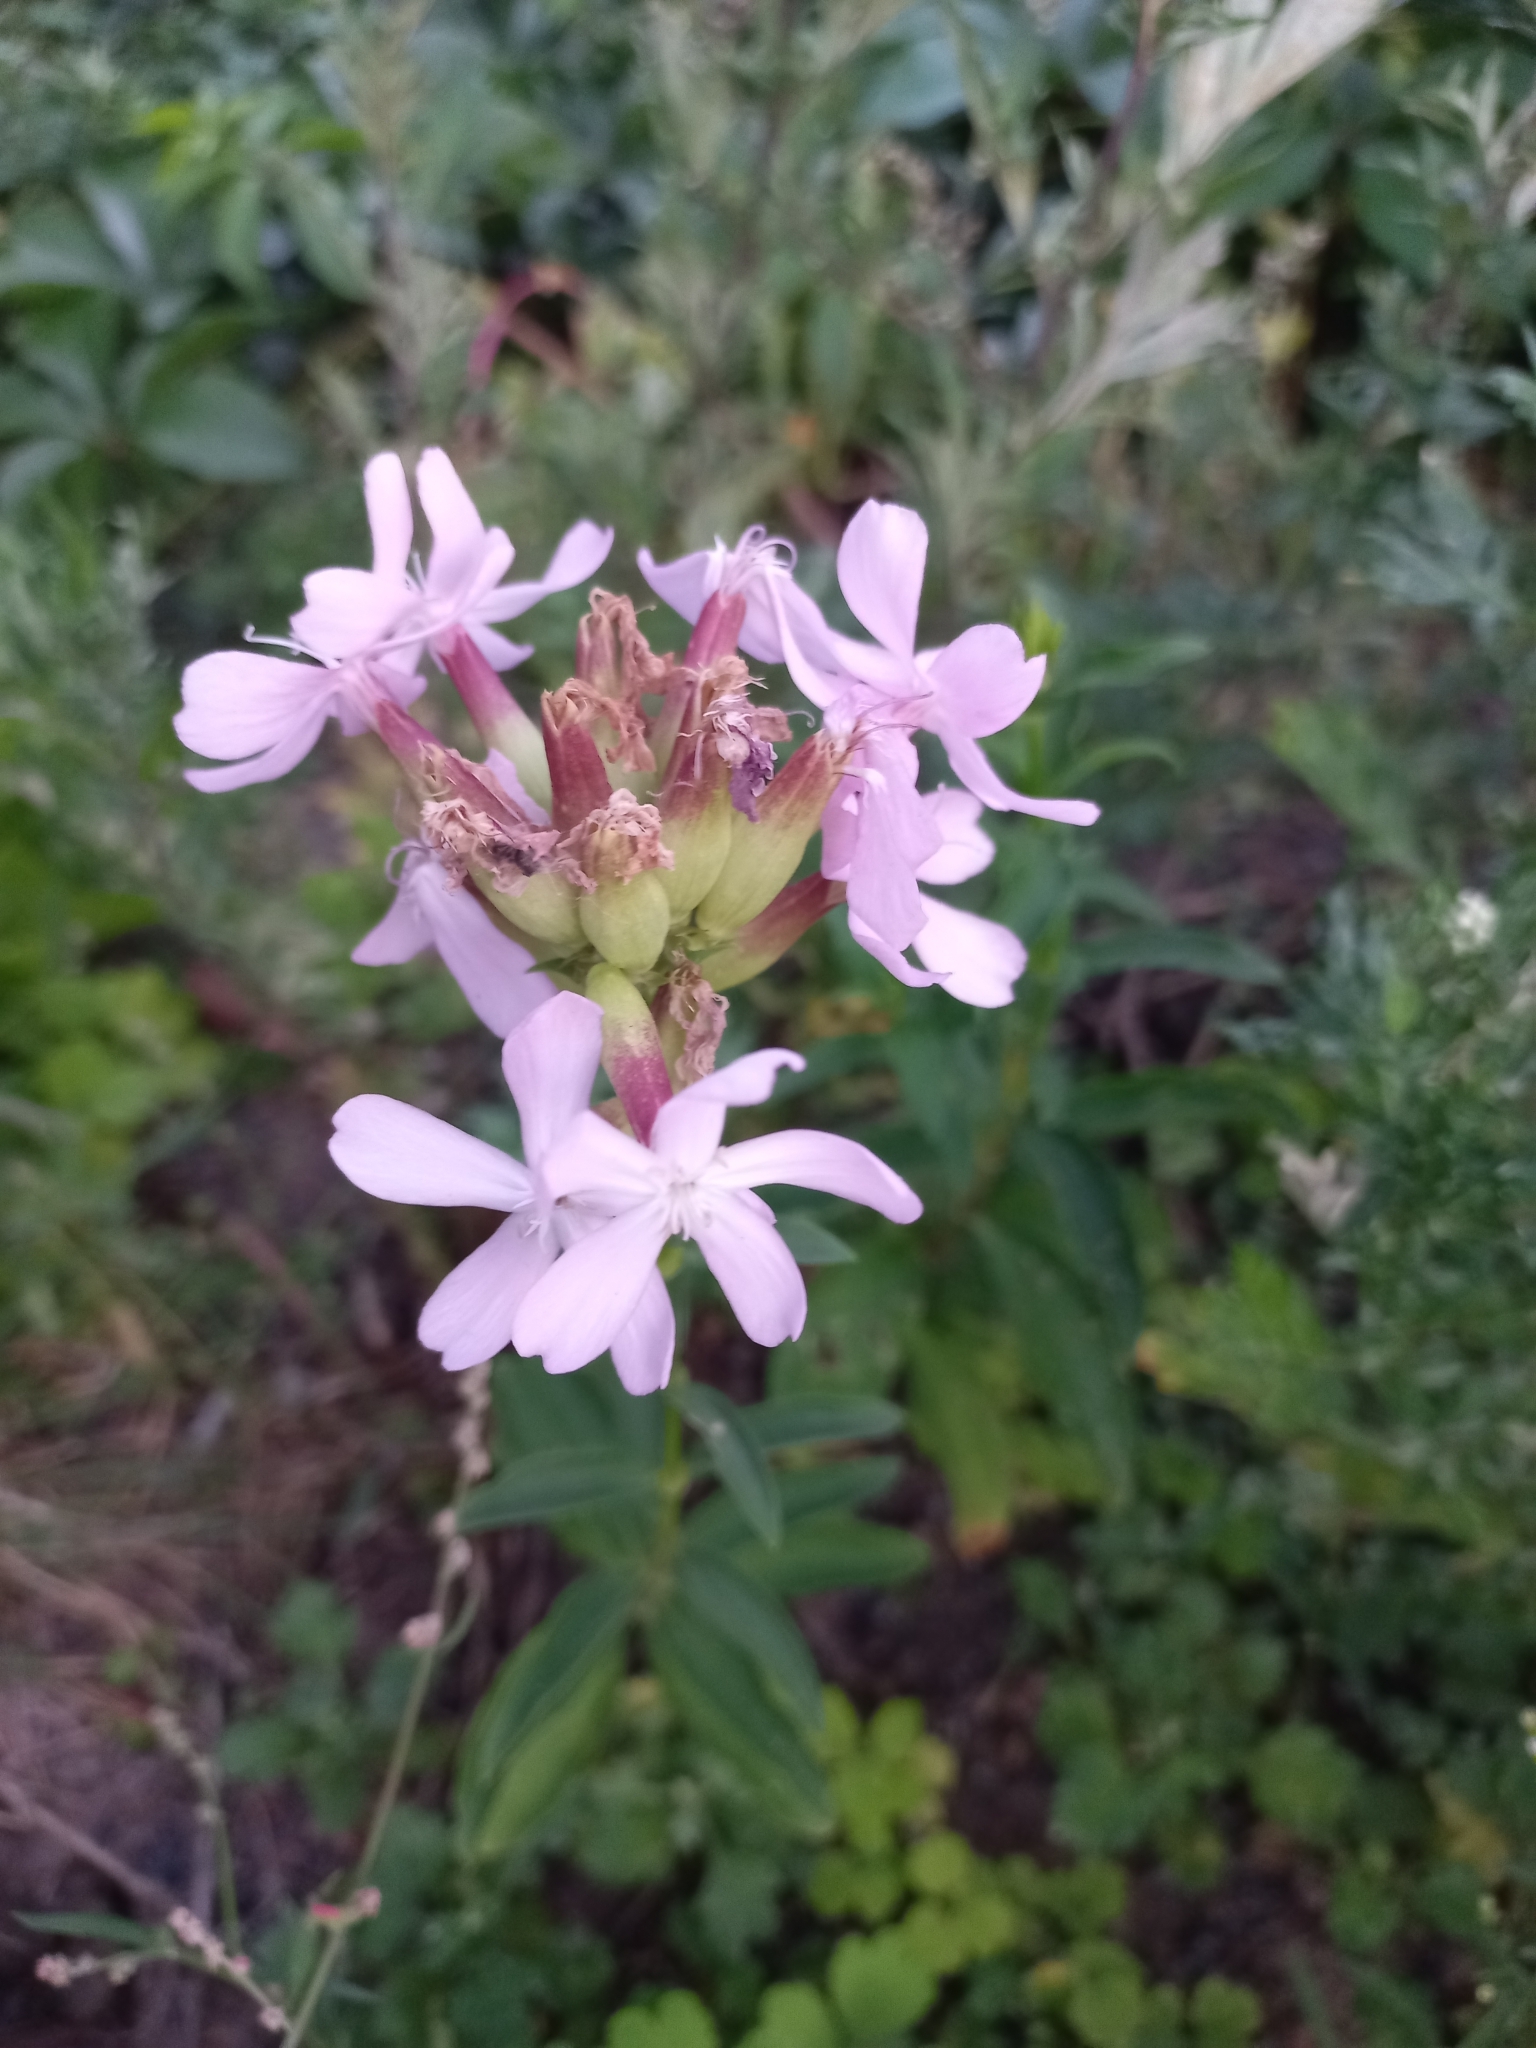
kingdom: Plantae
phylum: Tracheophyta
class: Magnoliopsida
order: Caryophyllales
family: Caryophyllaceae
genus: Saponaria
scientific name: Saponaria officinalis
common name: Soapwort
